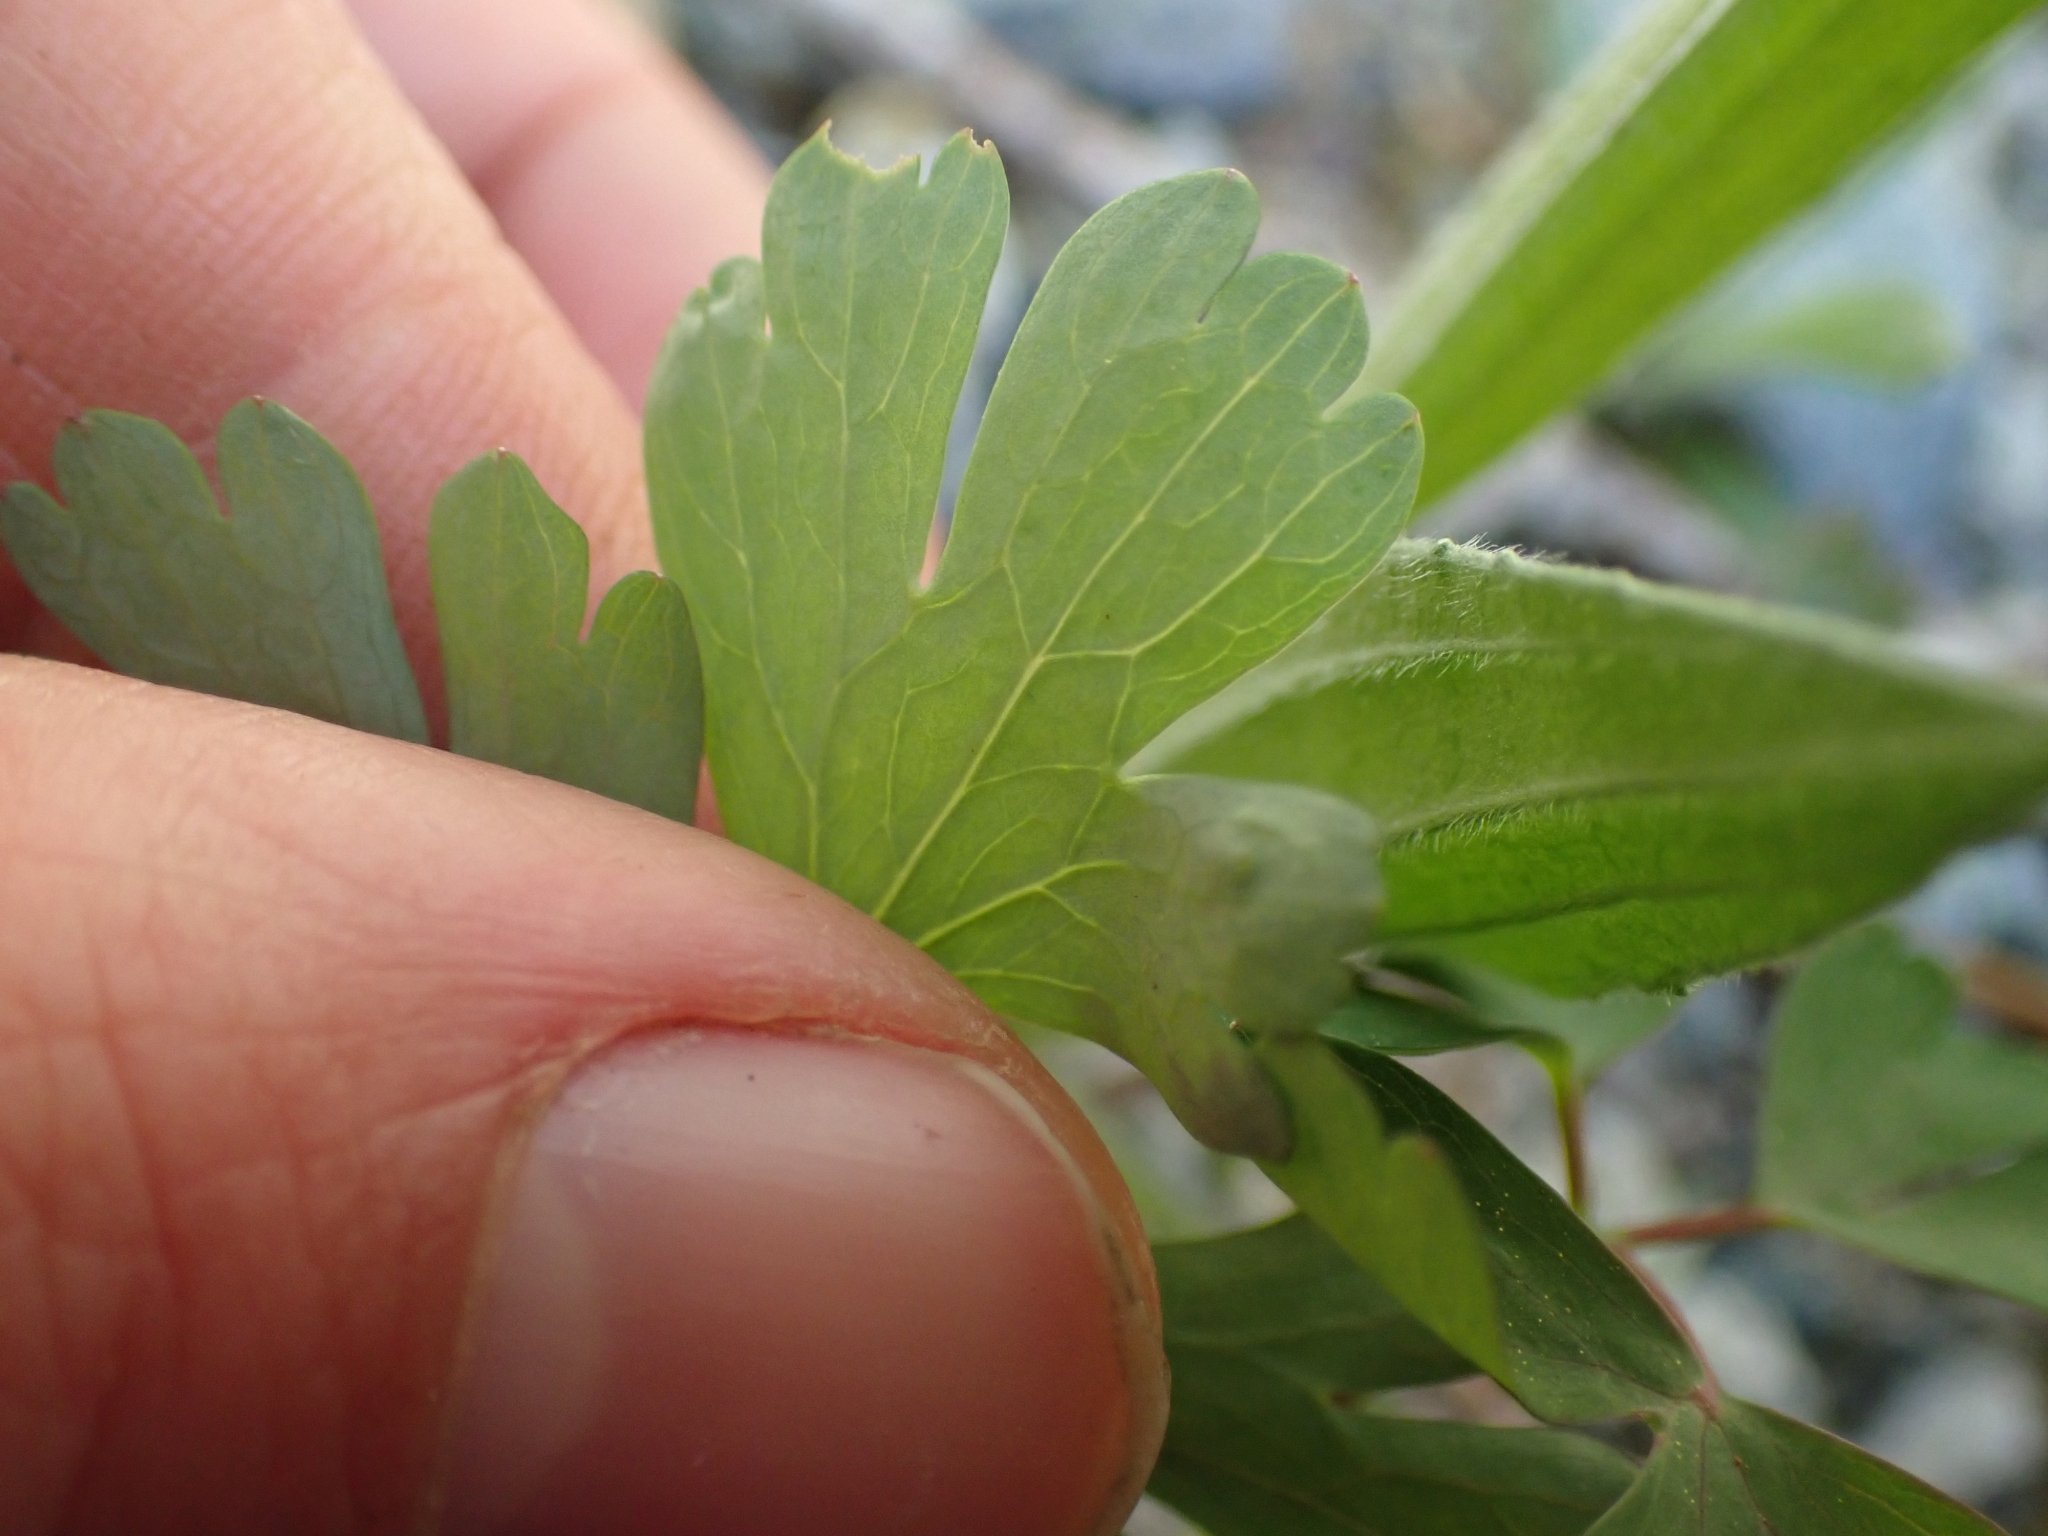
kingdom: Plantae
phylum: Tracheophyta
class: Magnoliopsida
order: Ranunculales
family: Ranunculaceae
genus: Aquilegia
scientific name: Aquilegia formosa
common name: Sitka columbine
